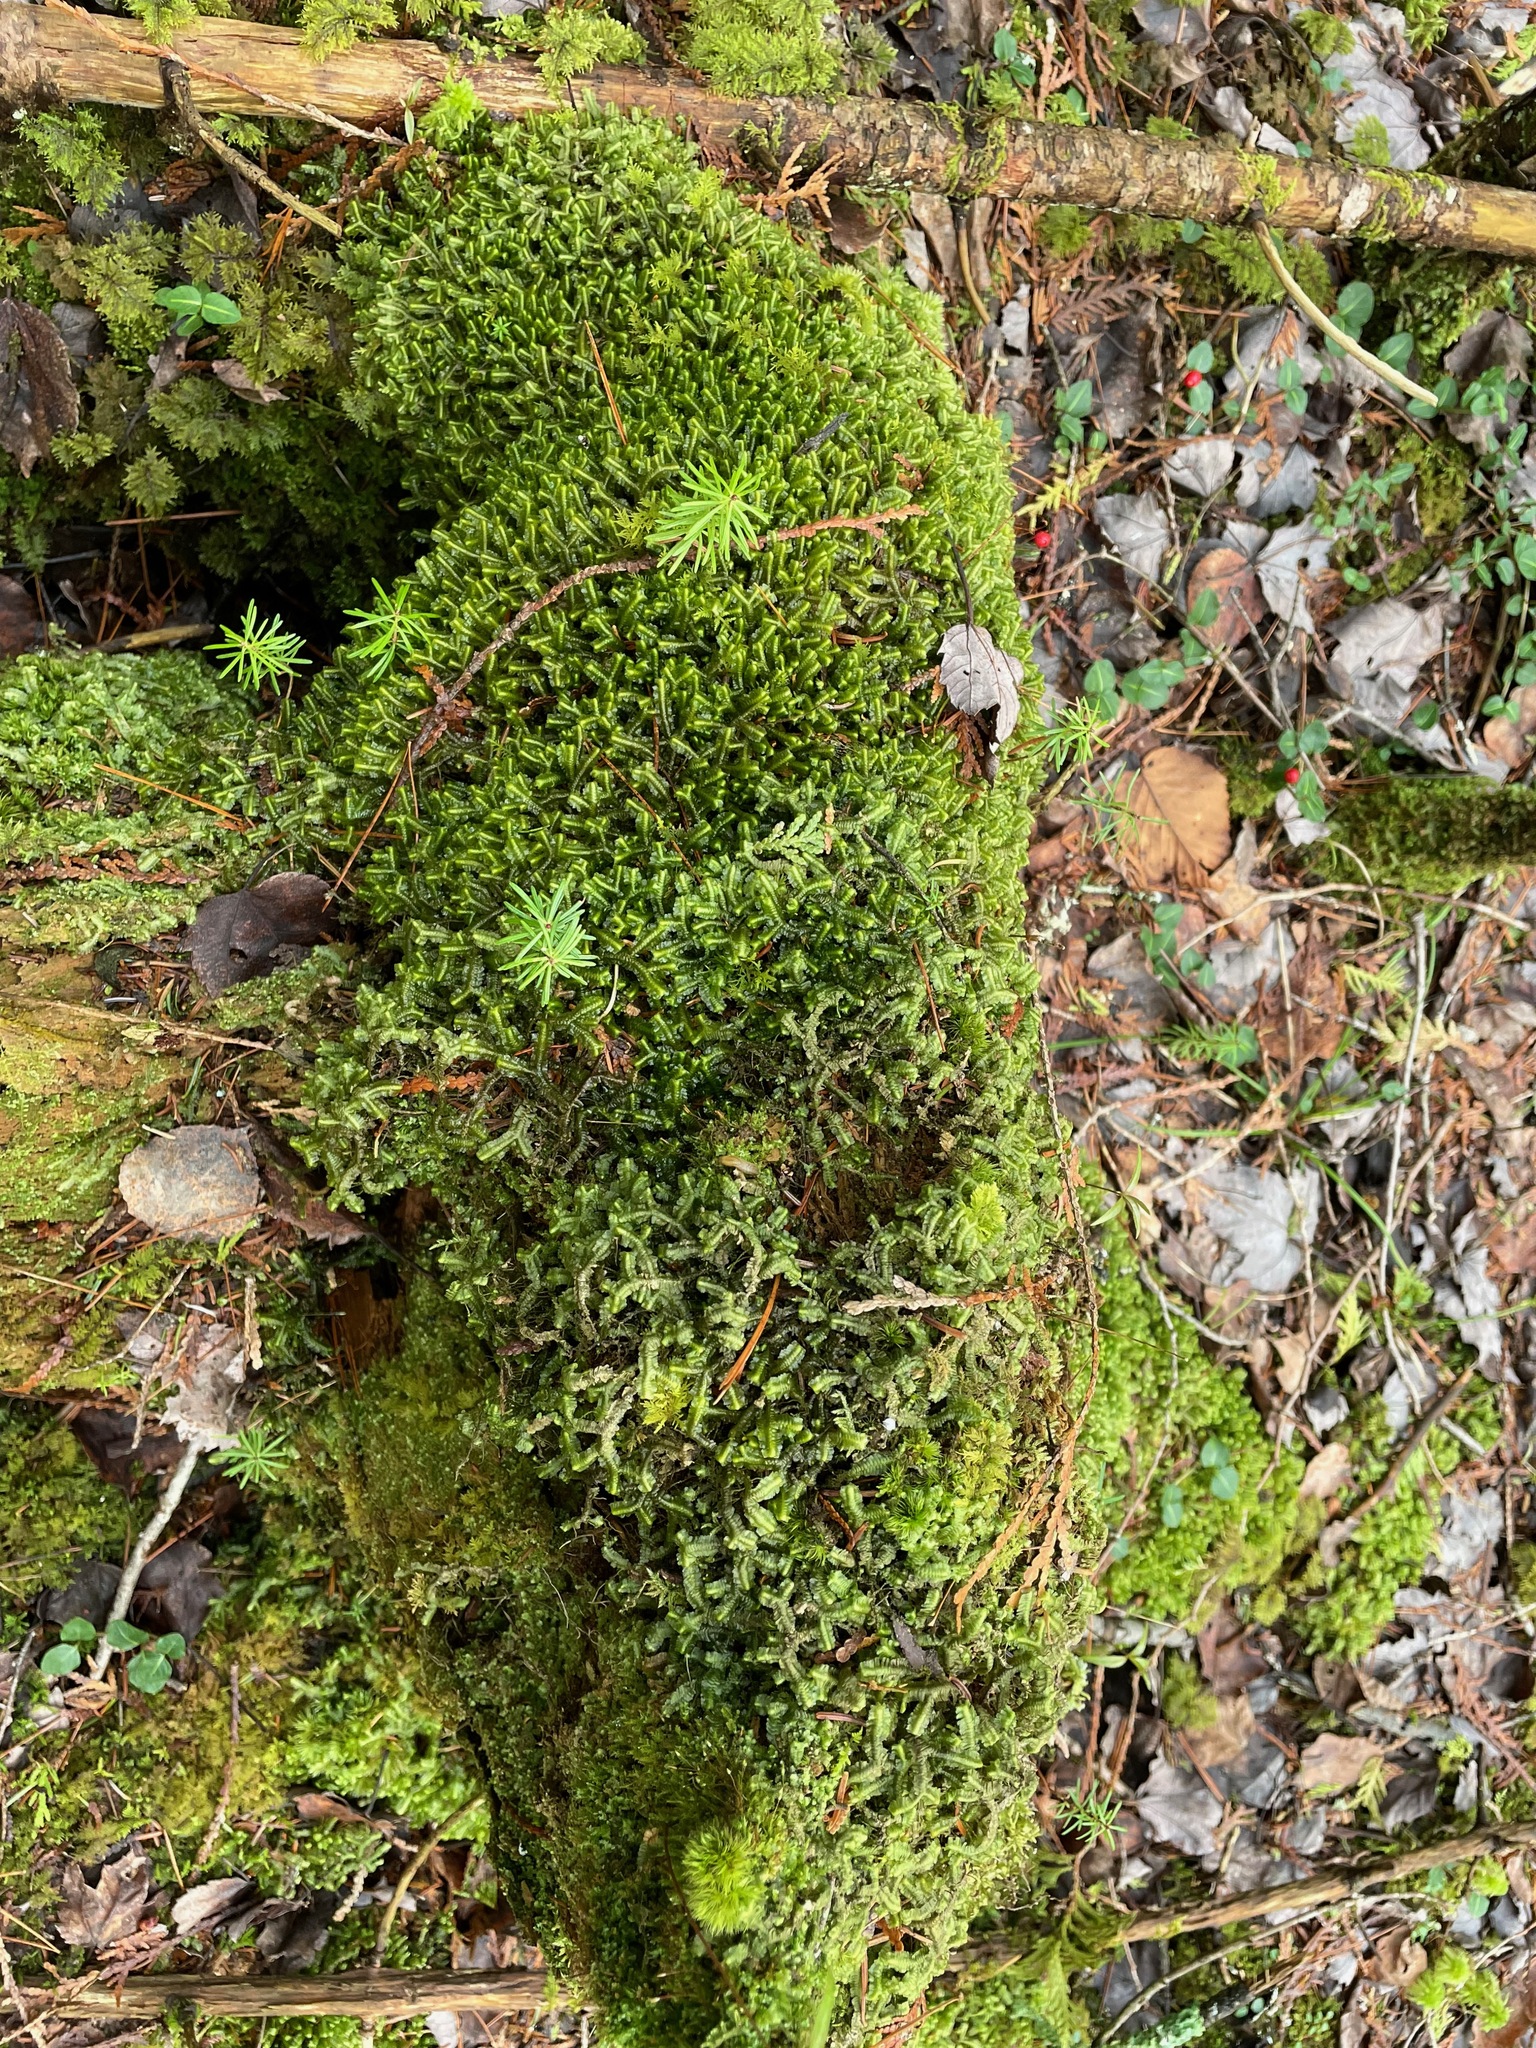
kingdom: Plantae
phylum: Marchantiophyta
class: Jungermanniopsida
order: Jungermanniales
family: Lepidoziaceae
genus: Bazzania
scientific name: Bazzania trilobata
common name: Three-lobed whipwort
